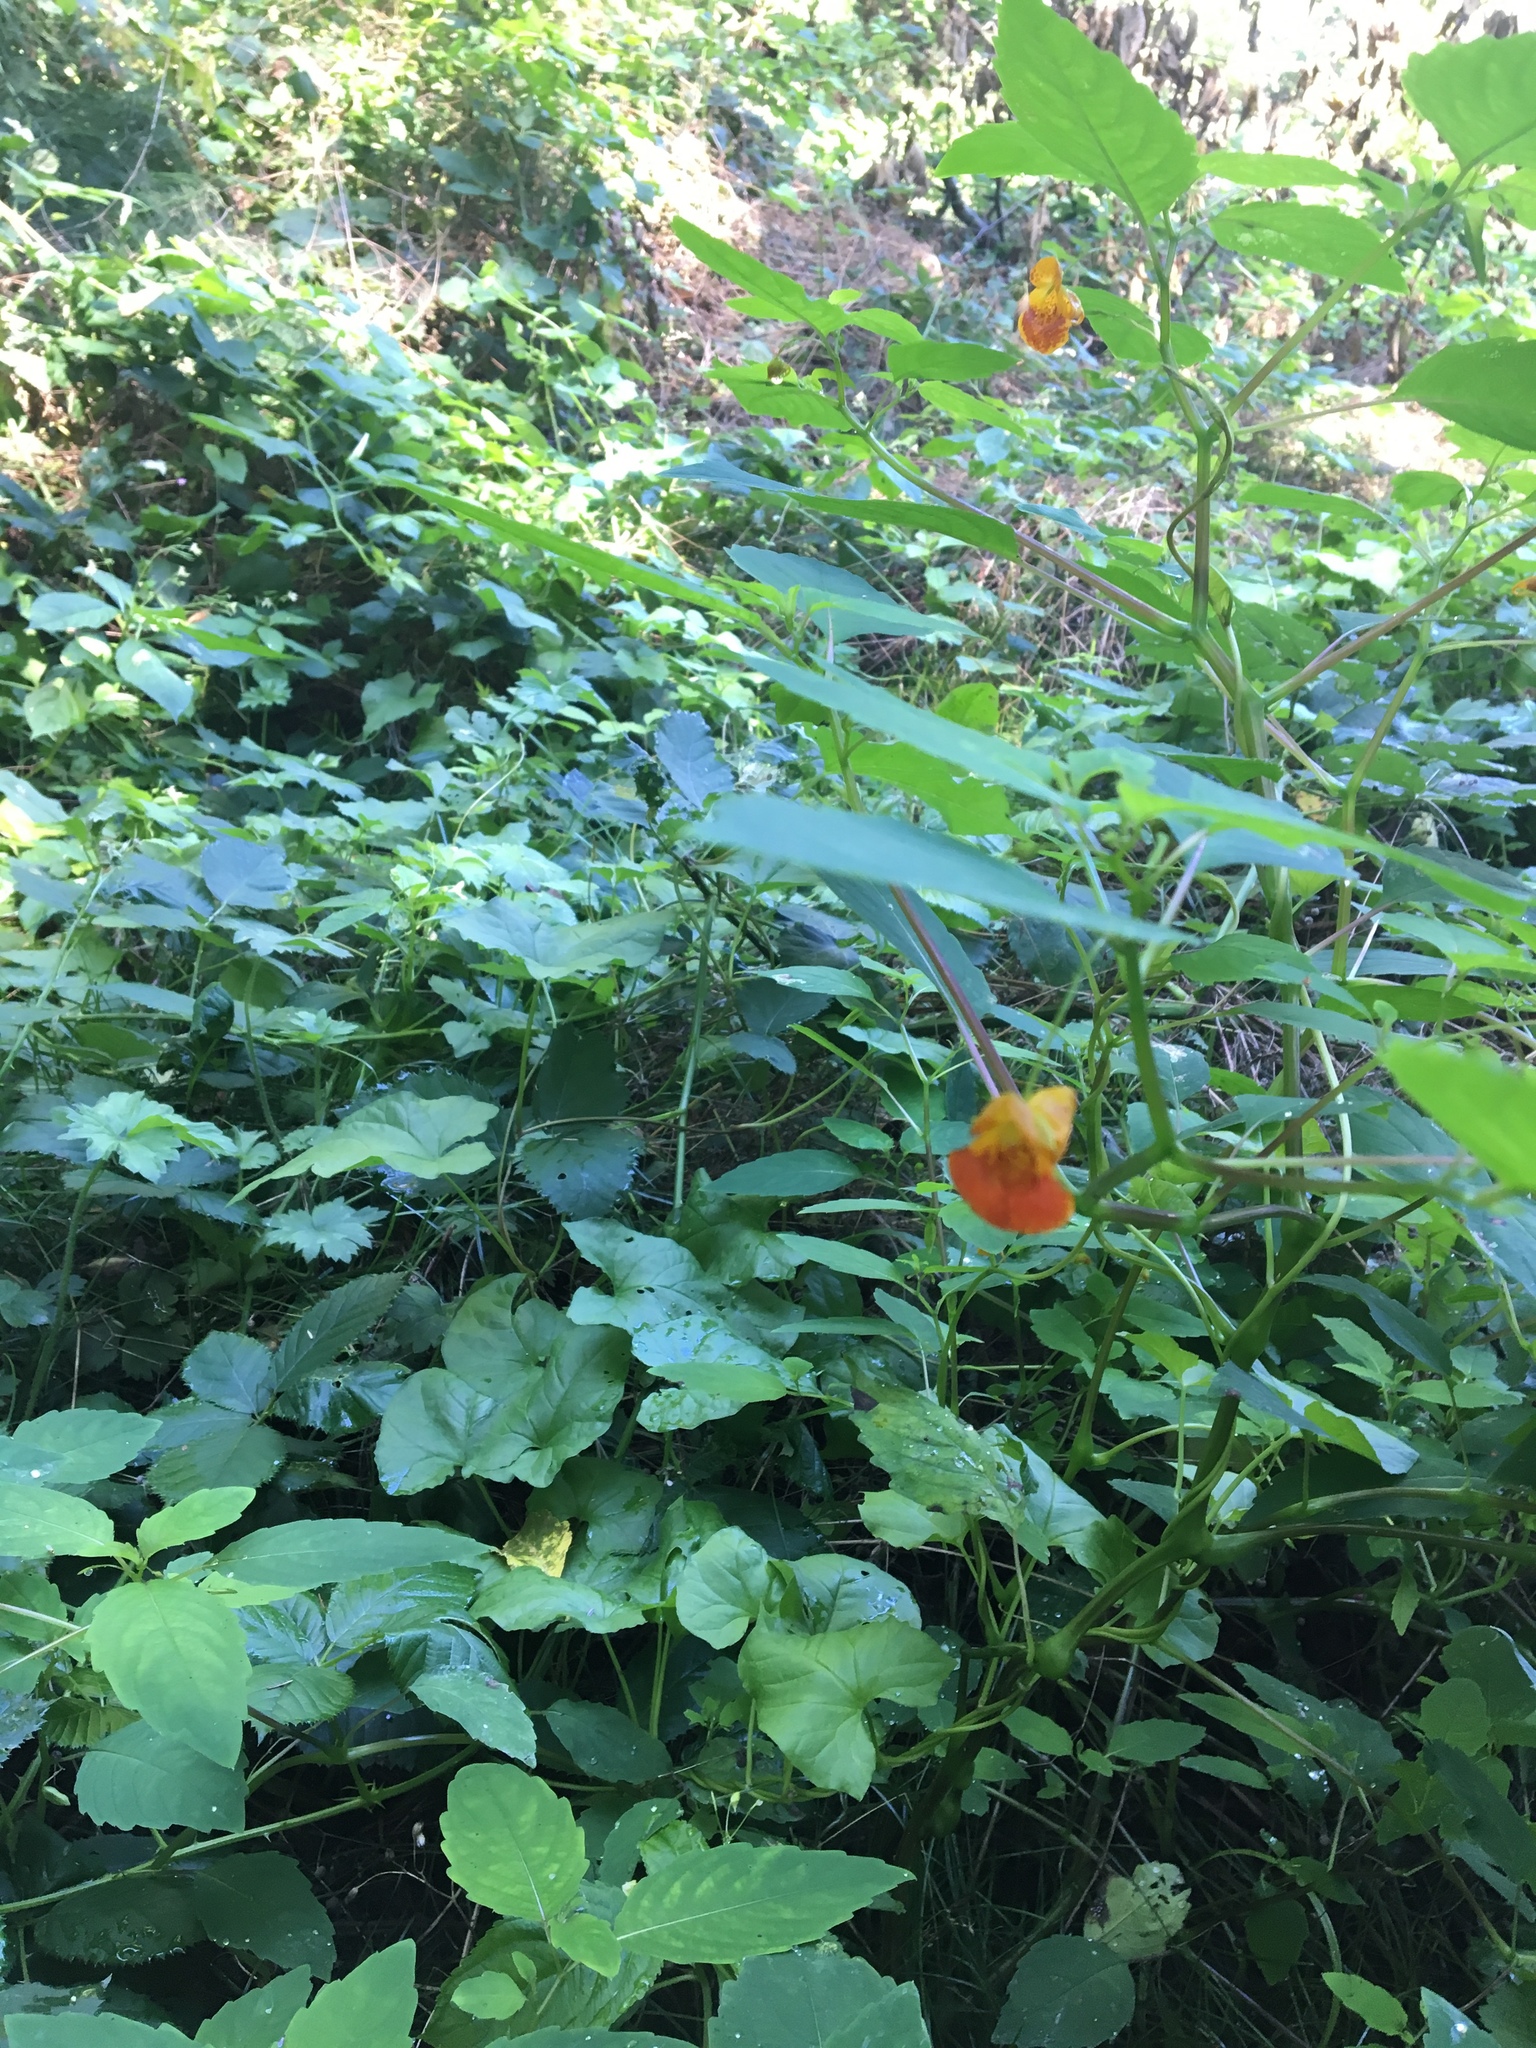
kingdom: Plantae
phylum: Tracheophyta
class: Magnoliopsida
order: Ericales
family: Balsaminaceae
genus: Impatiens
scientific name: Impatiens capensis
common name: Orange balsam
